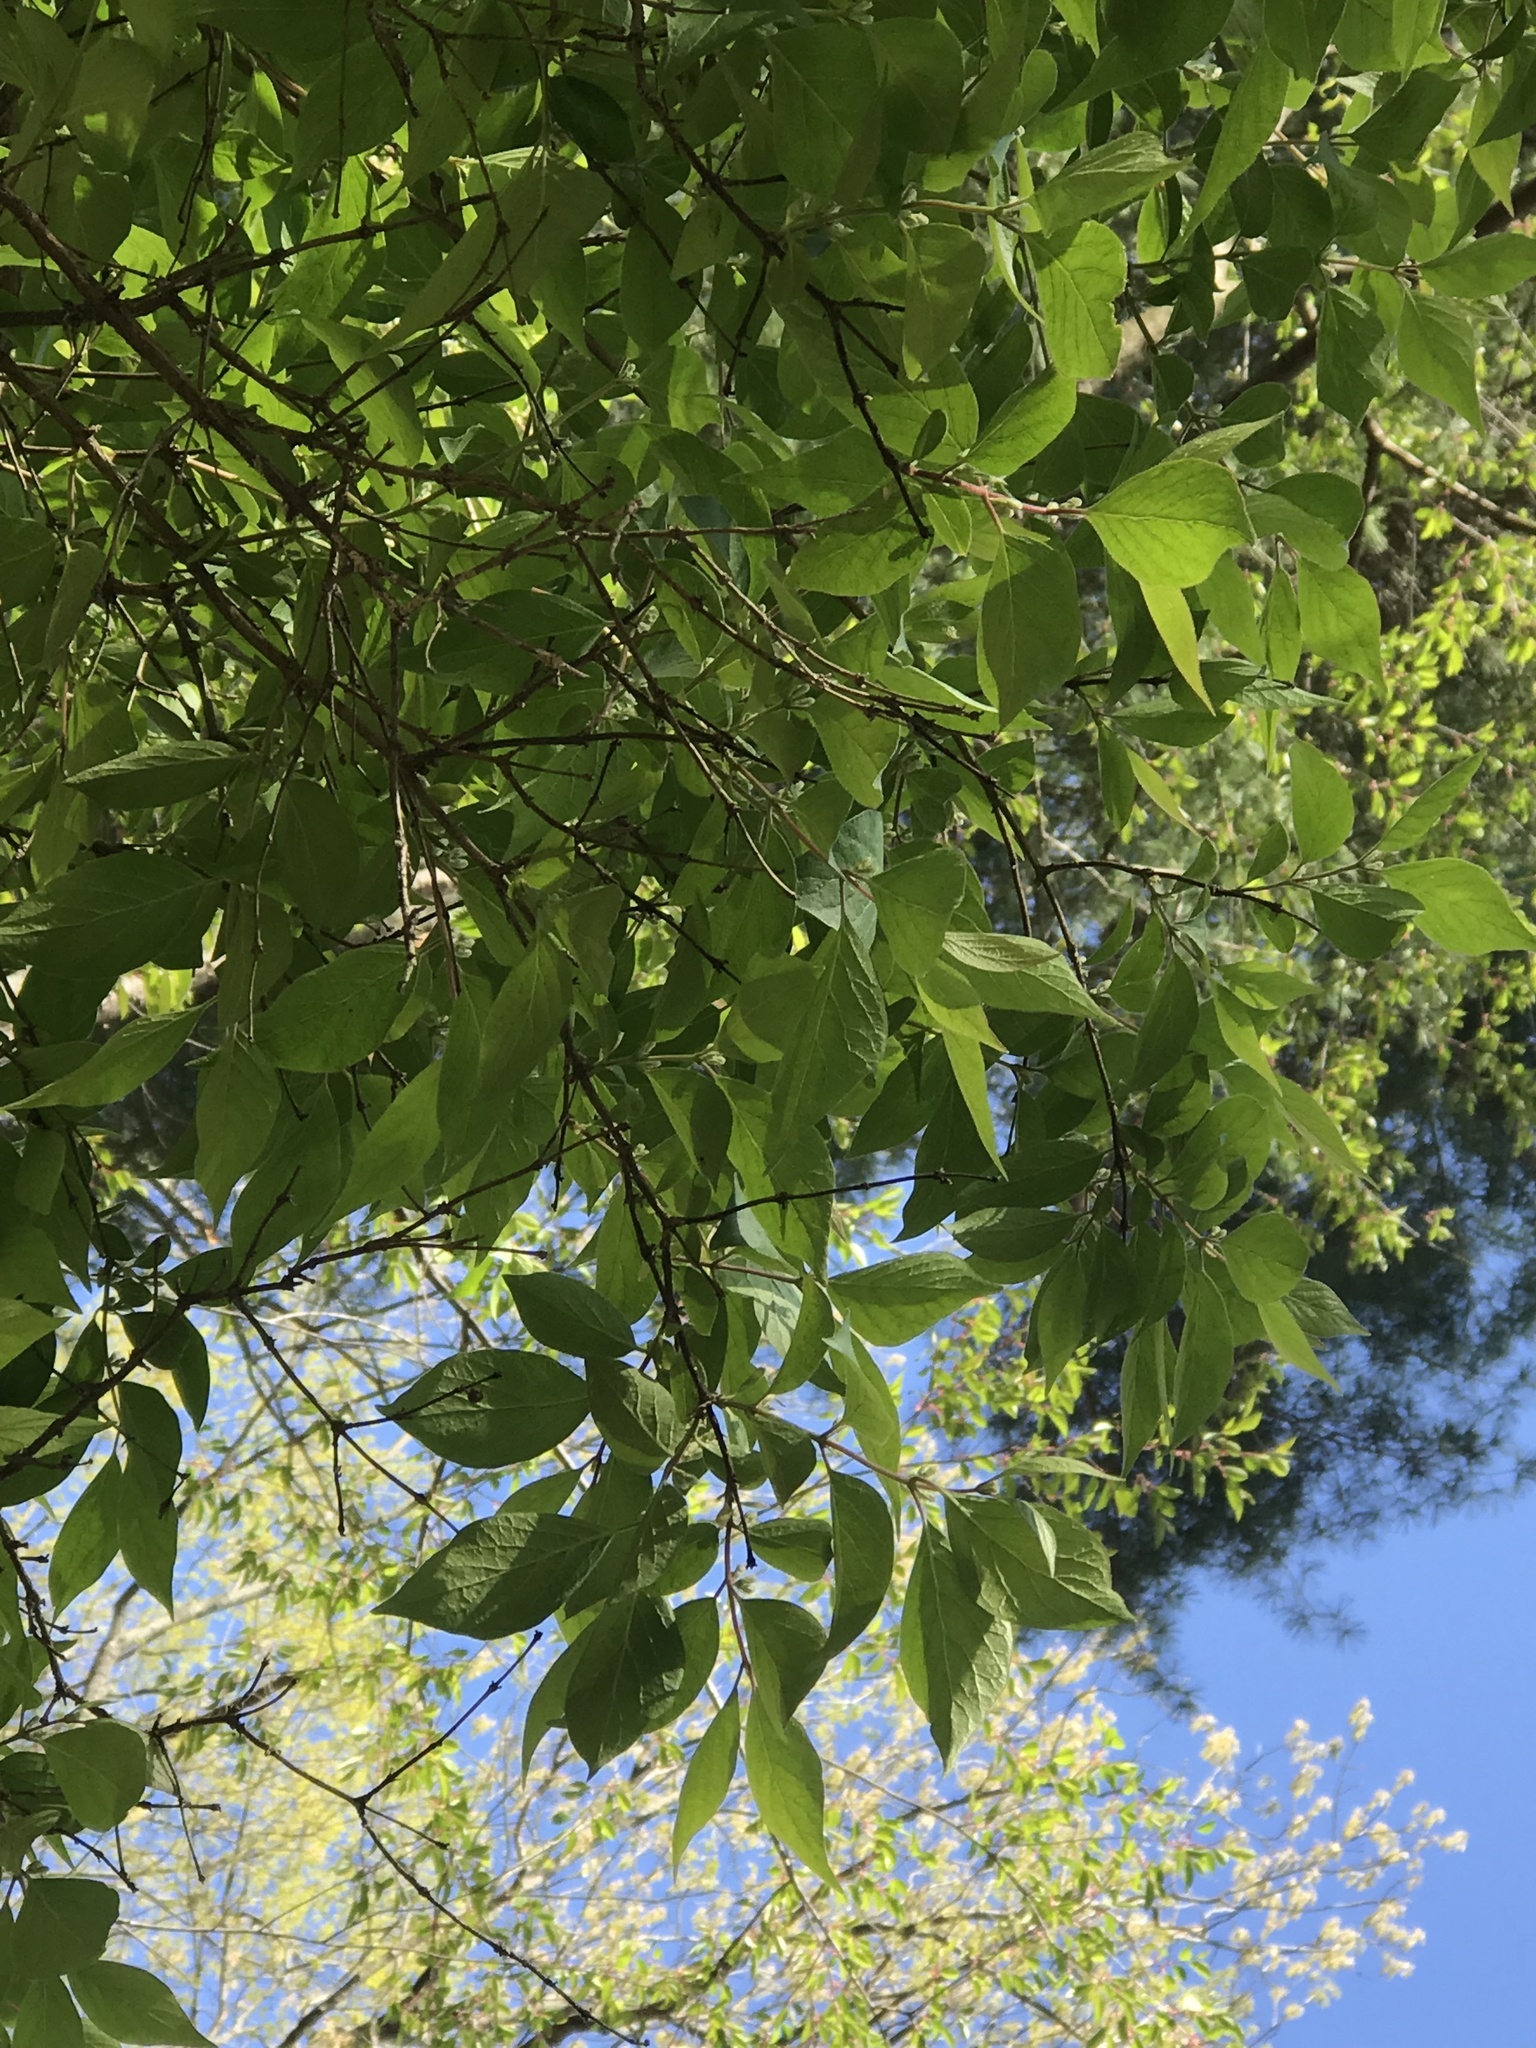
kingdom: Plantae
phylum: Tracheophyta
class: Magnoliopsida
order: Dipsacales
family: Caprifoliaceae
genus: Lonicera
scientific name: Lonicera maackii
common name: Amur honeysuckle
